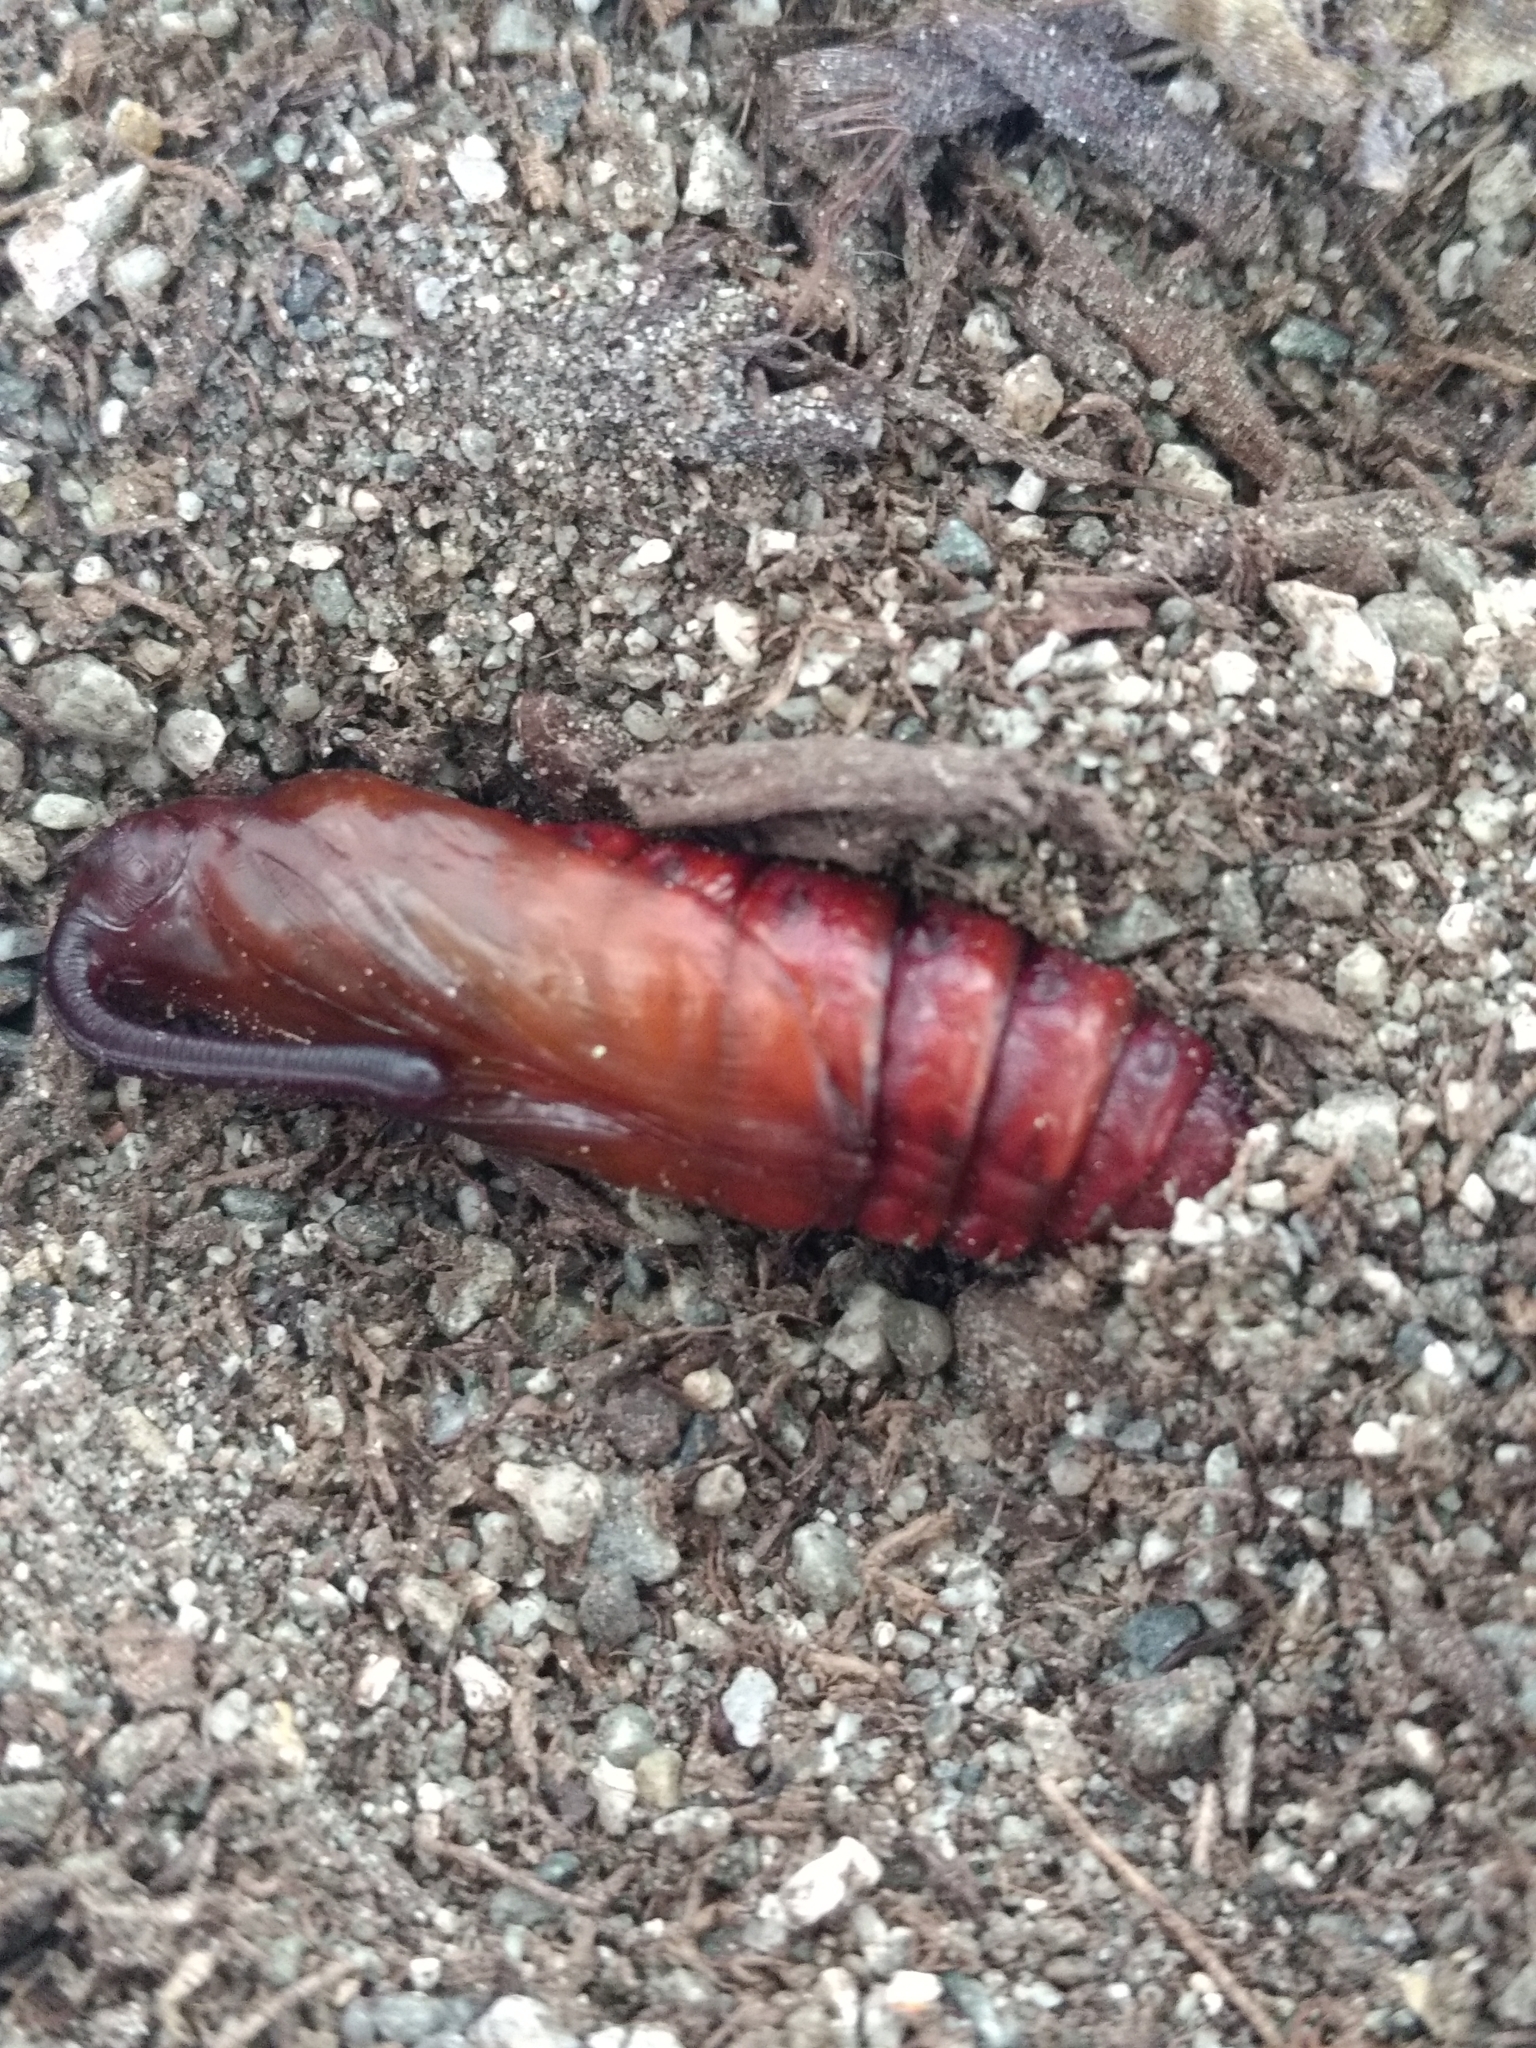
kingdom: Animalia
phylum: Arthropoda
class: Insecta
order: Lepidoptera
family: Sphingidae
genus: Manduca
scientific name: Manduca sexta
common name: Carolina sphinx
